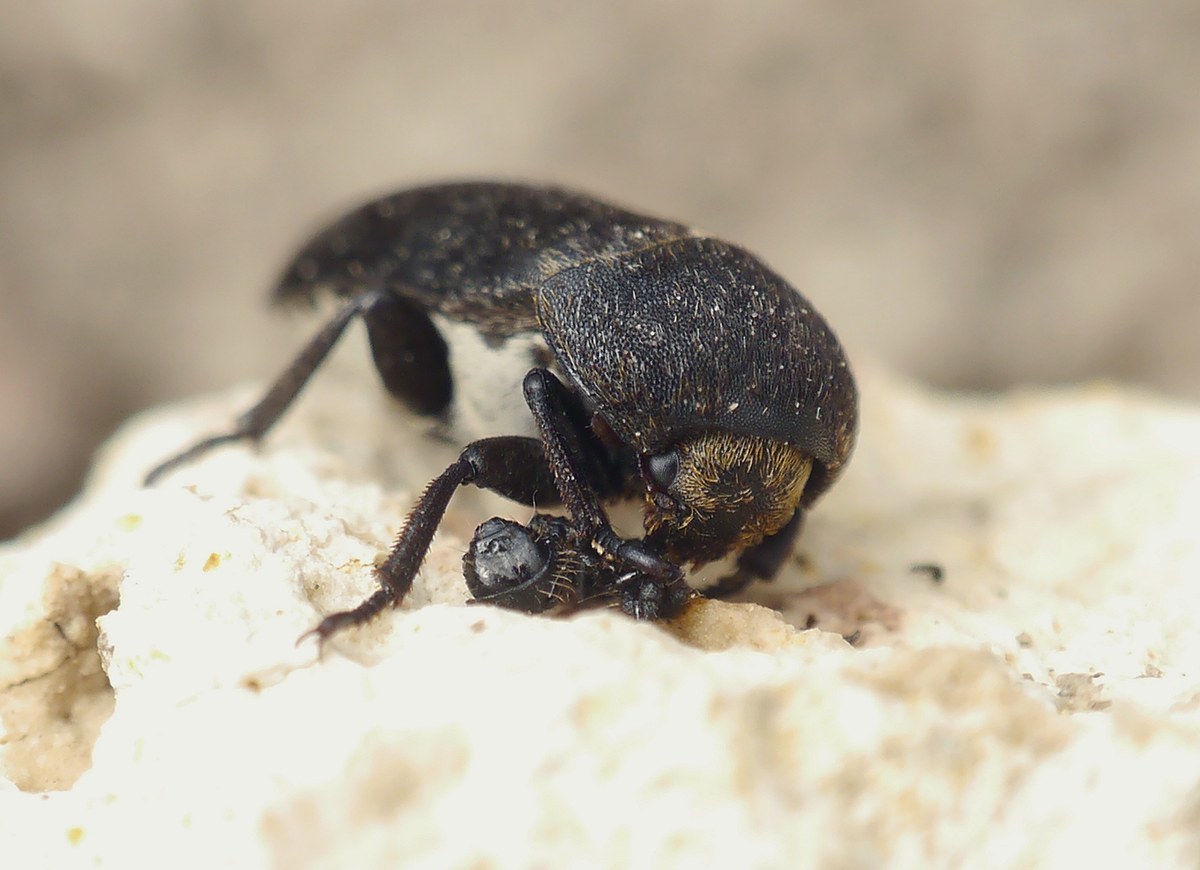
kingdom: Animalia
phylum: Arthropoda
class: Insecta
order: Coleoptera
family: Dermestidae
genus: Dermestes
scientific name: Dermestes laniarius
